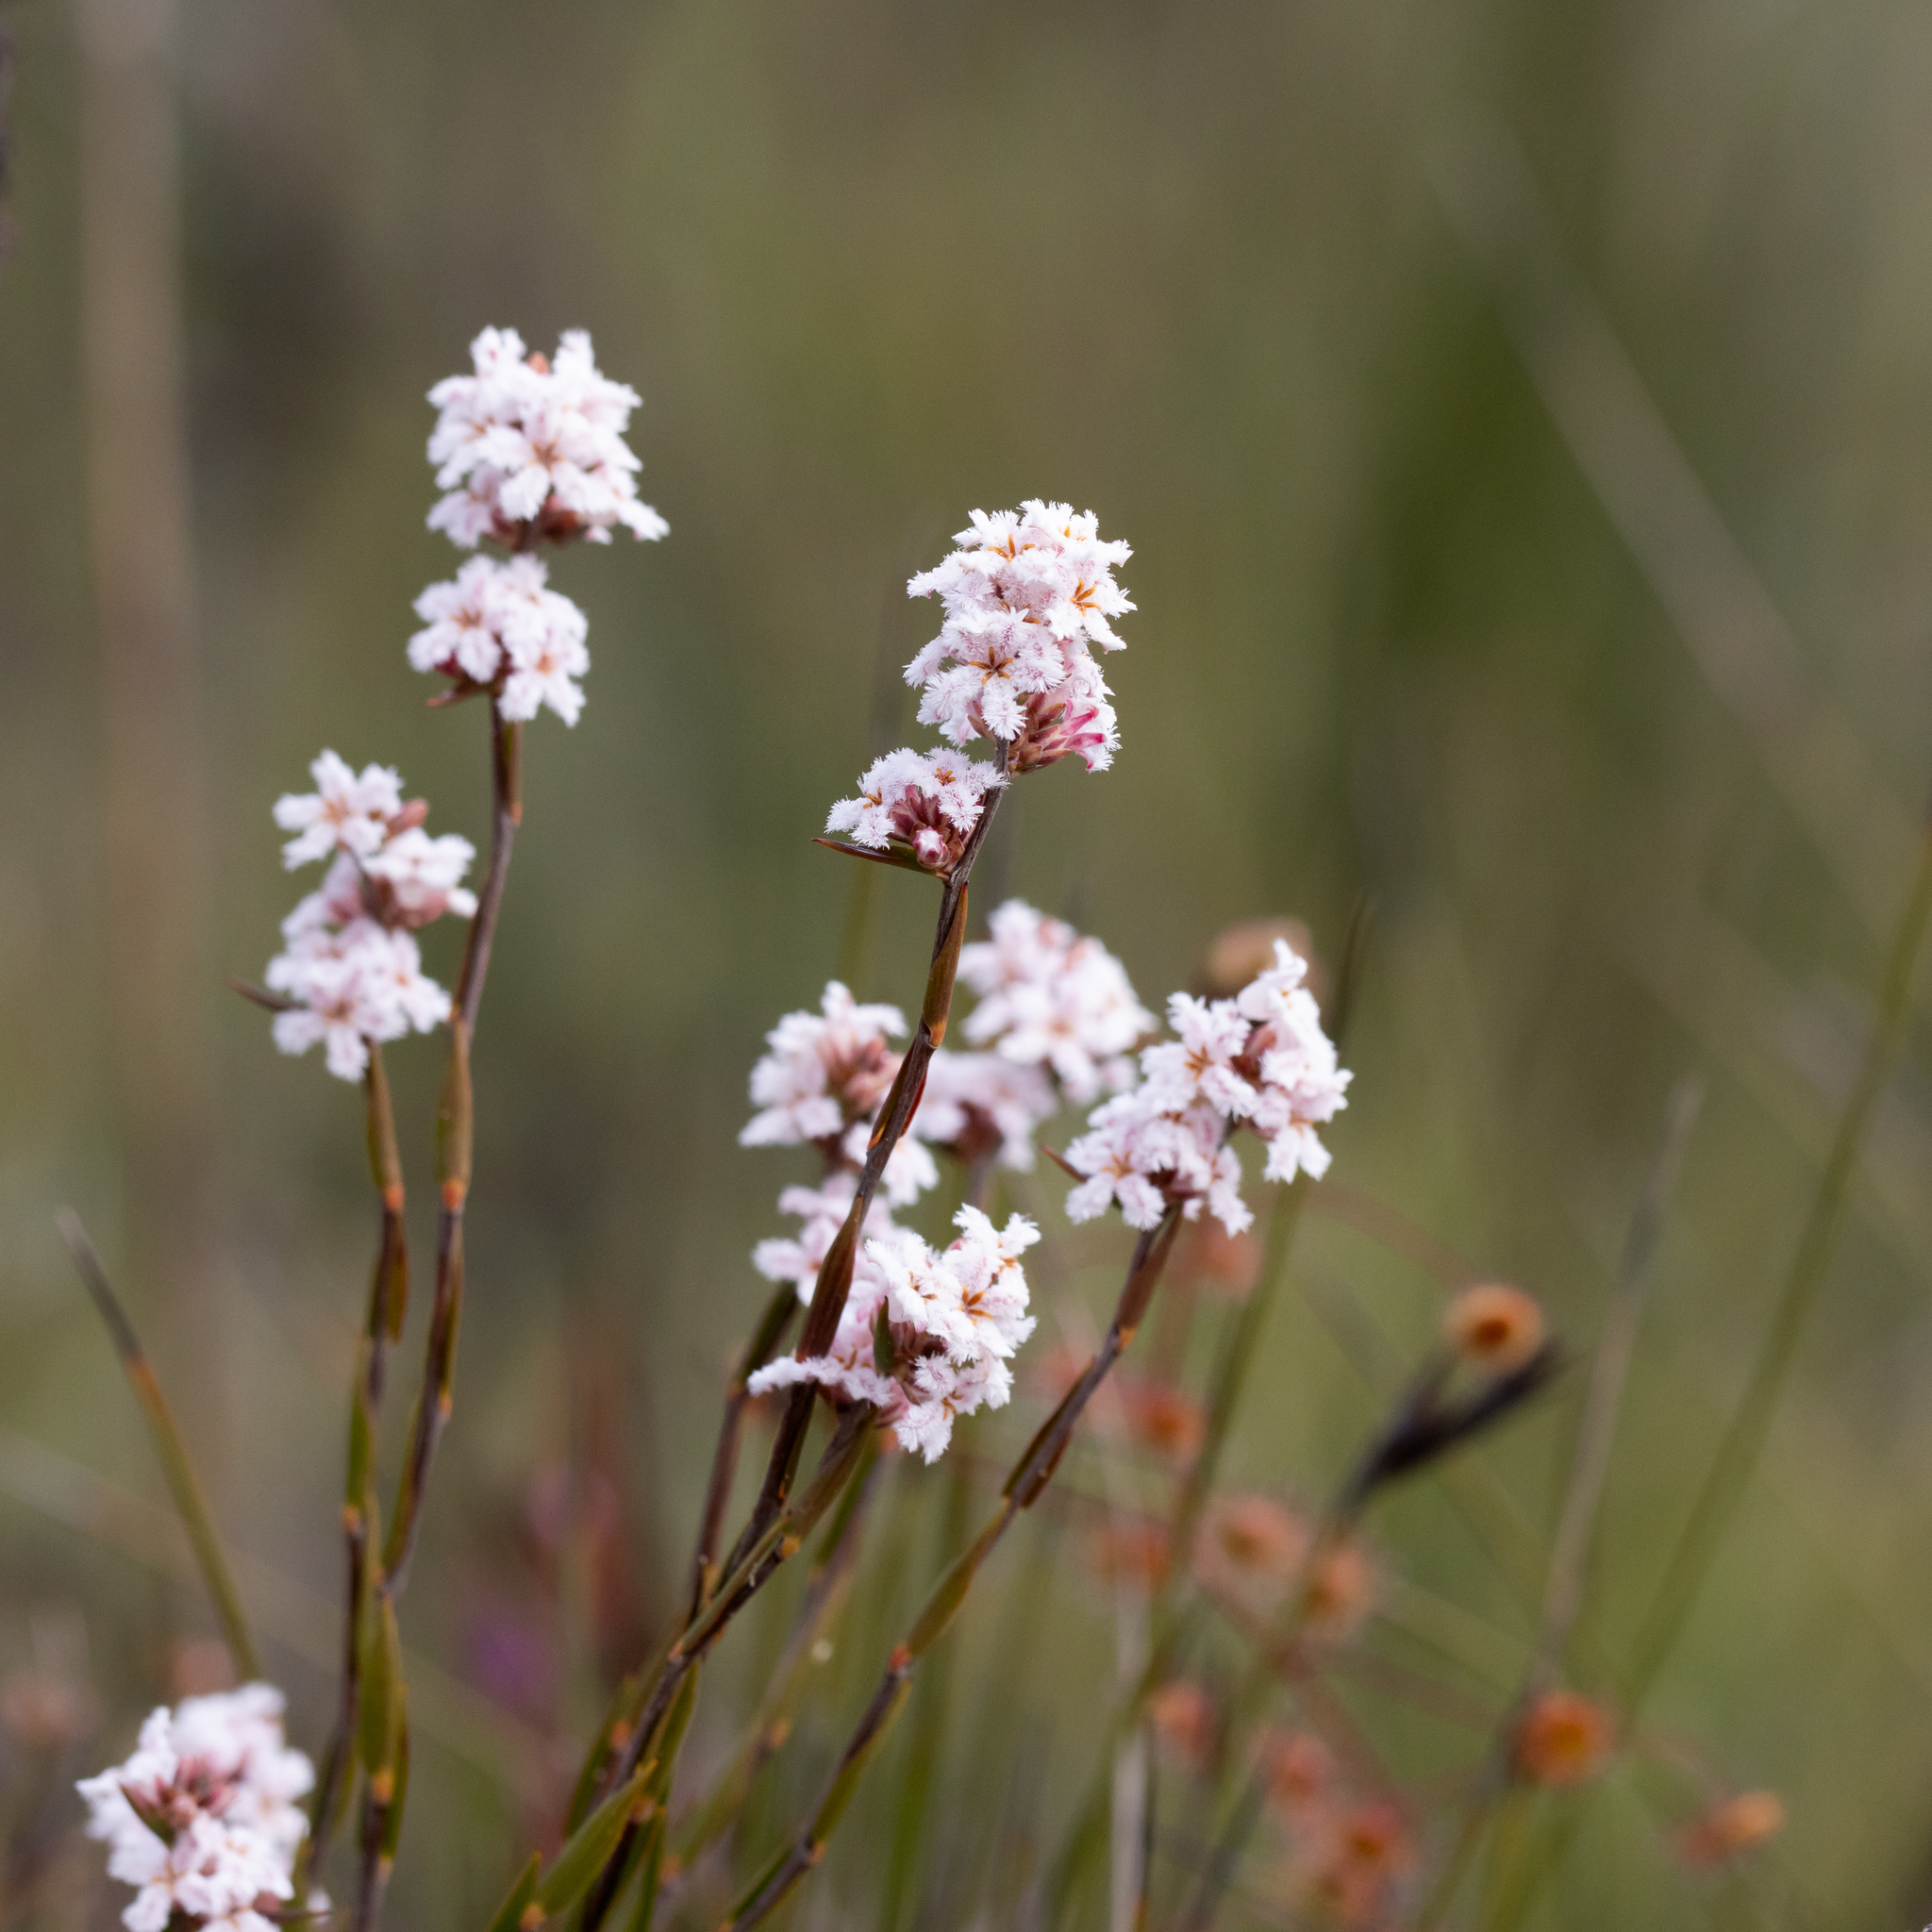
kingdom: Plantae
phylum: Tracheophyta
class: Magnoliopsida
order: Ericales
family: Ericaceae
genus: Leucopogon
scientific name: Leucopogon virgatus
